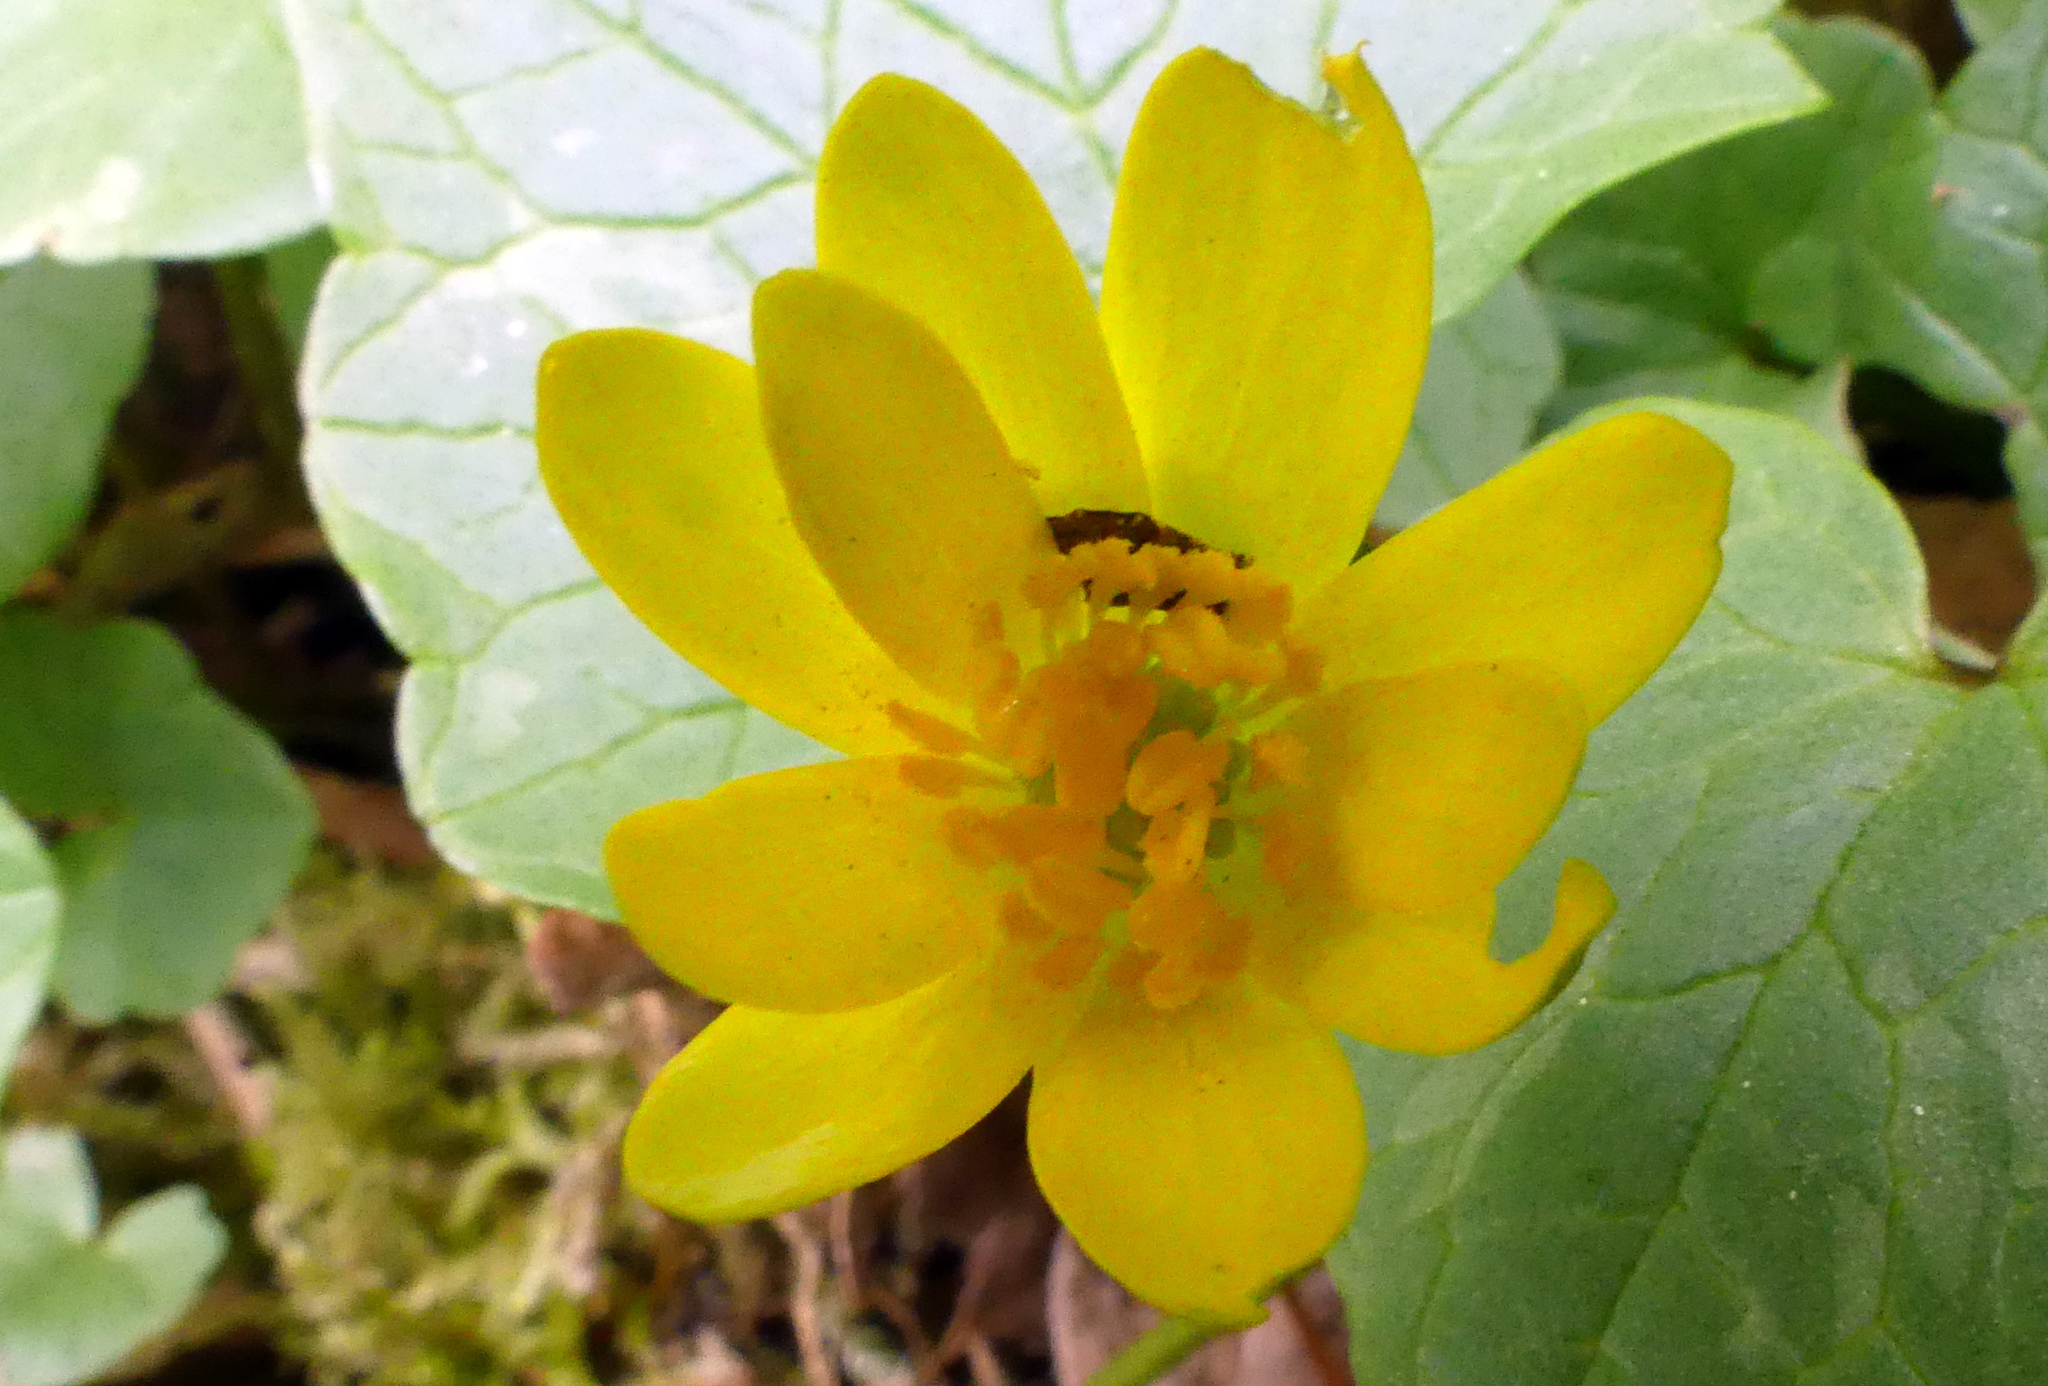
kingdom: Plantae
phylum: Tracheophyta
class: Magnoliopsida
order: Ranunculales
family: Ranunculaceae
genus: Ficaria
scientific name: Ficaria verna
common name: Lesser celandine
